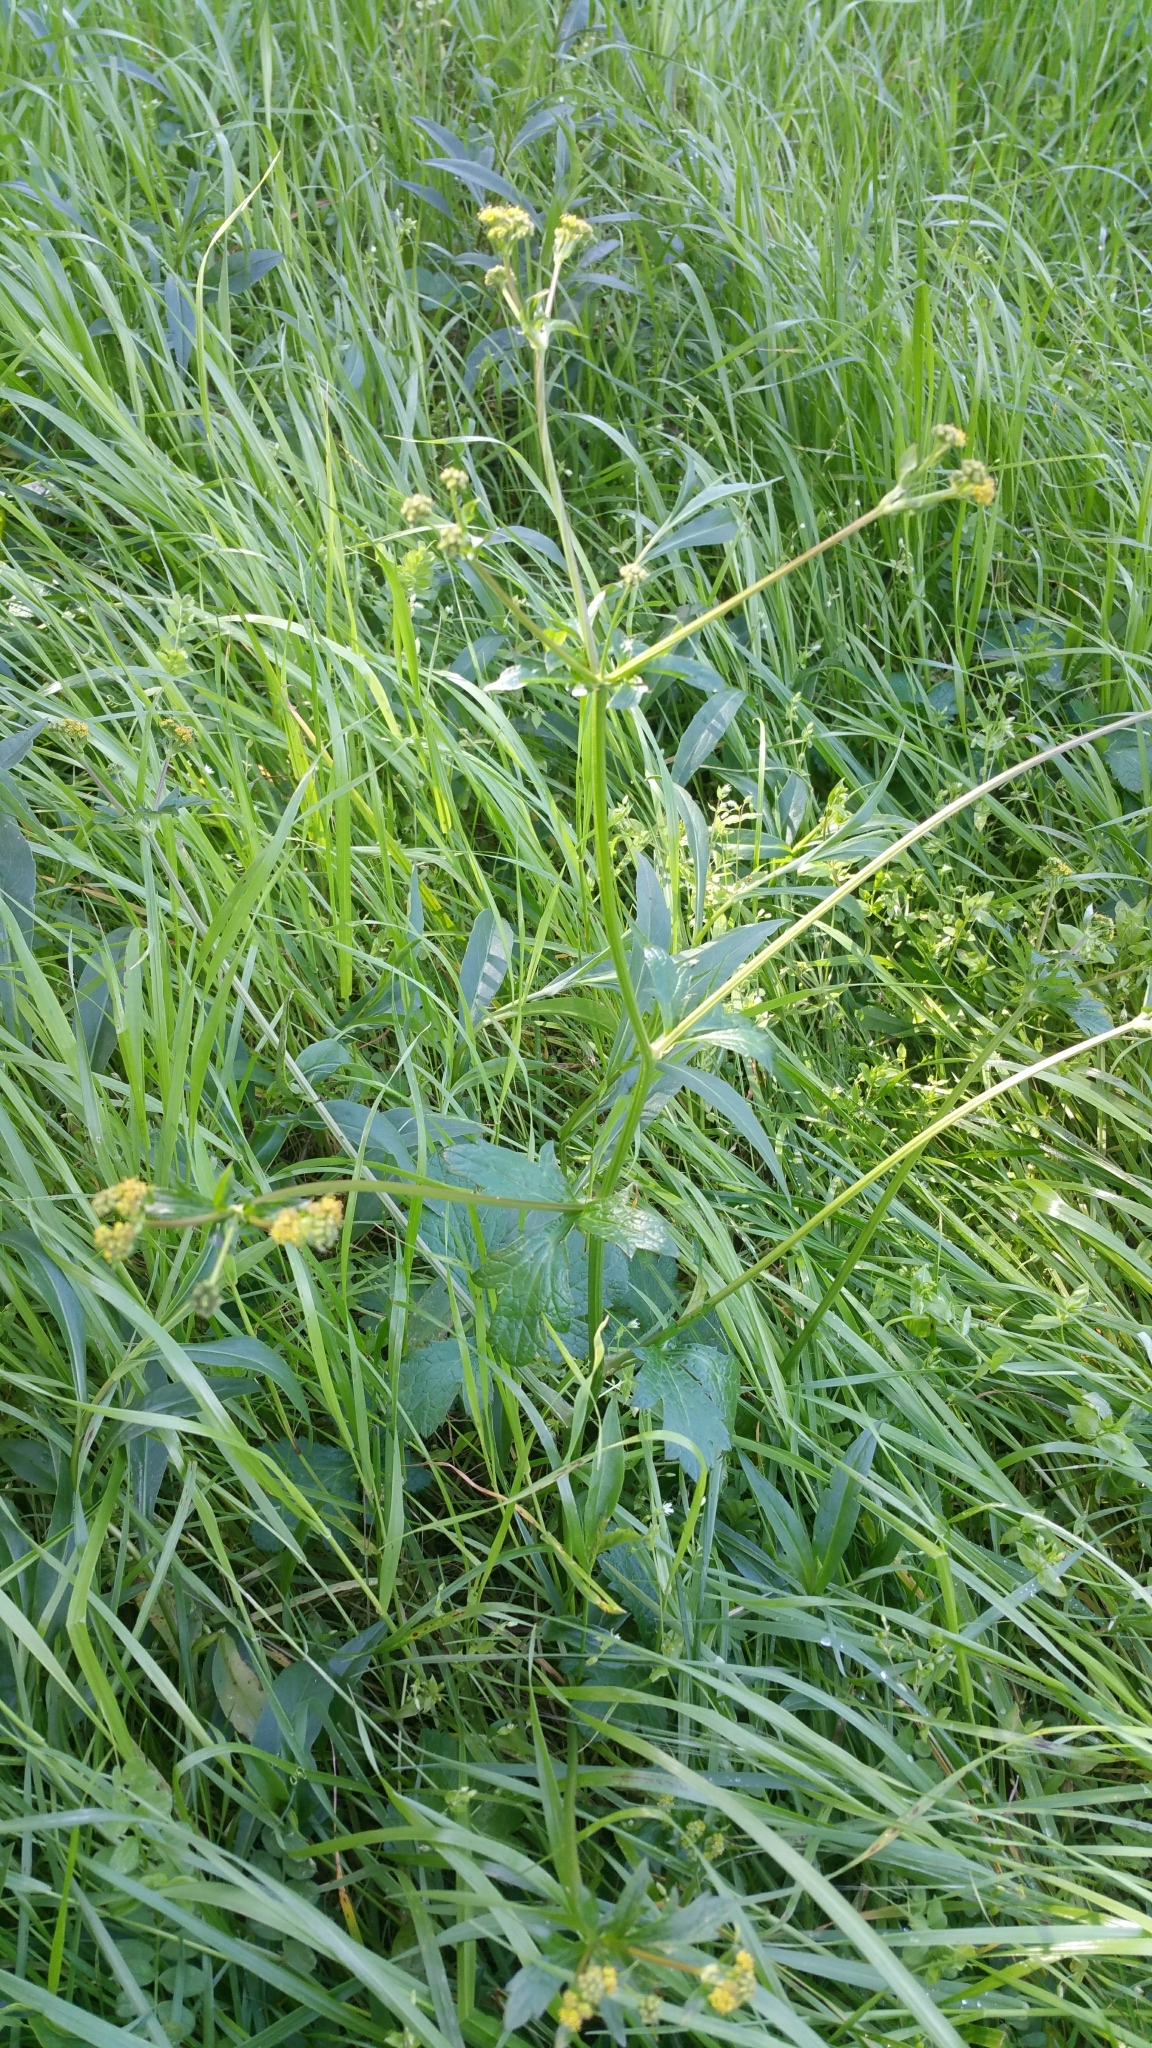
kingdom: Plantae
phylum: Tracheophyta
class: Magnoliopsida
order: Apiales
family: Apiaceae
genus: Sanicula
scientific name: Sanicula crassicaulis
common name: Western snakeroot
